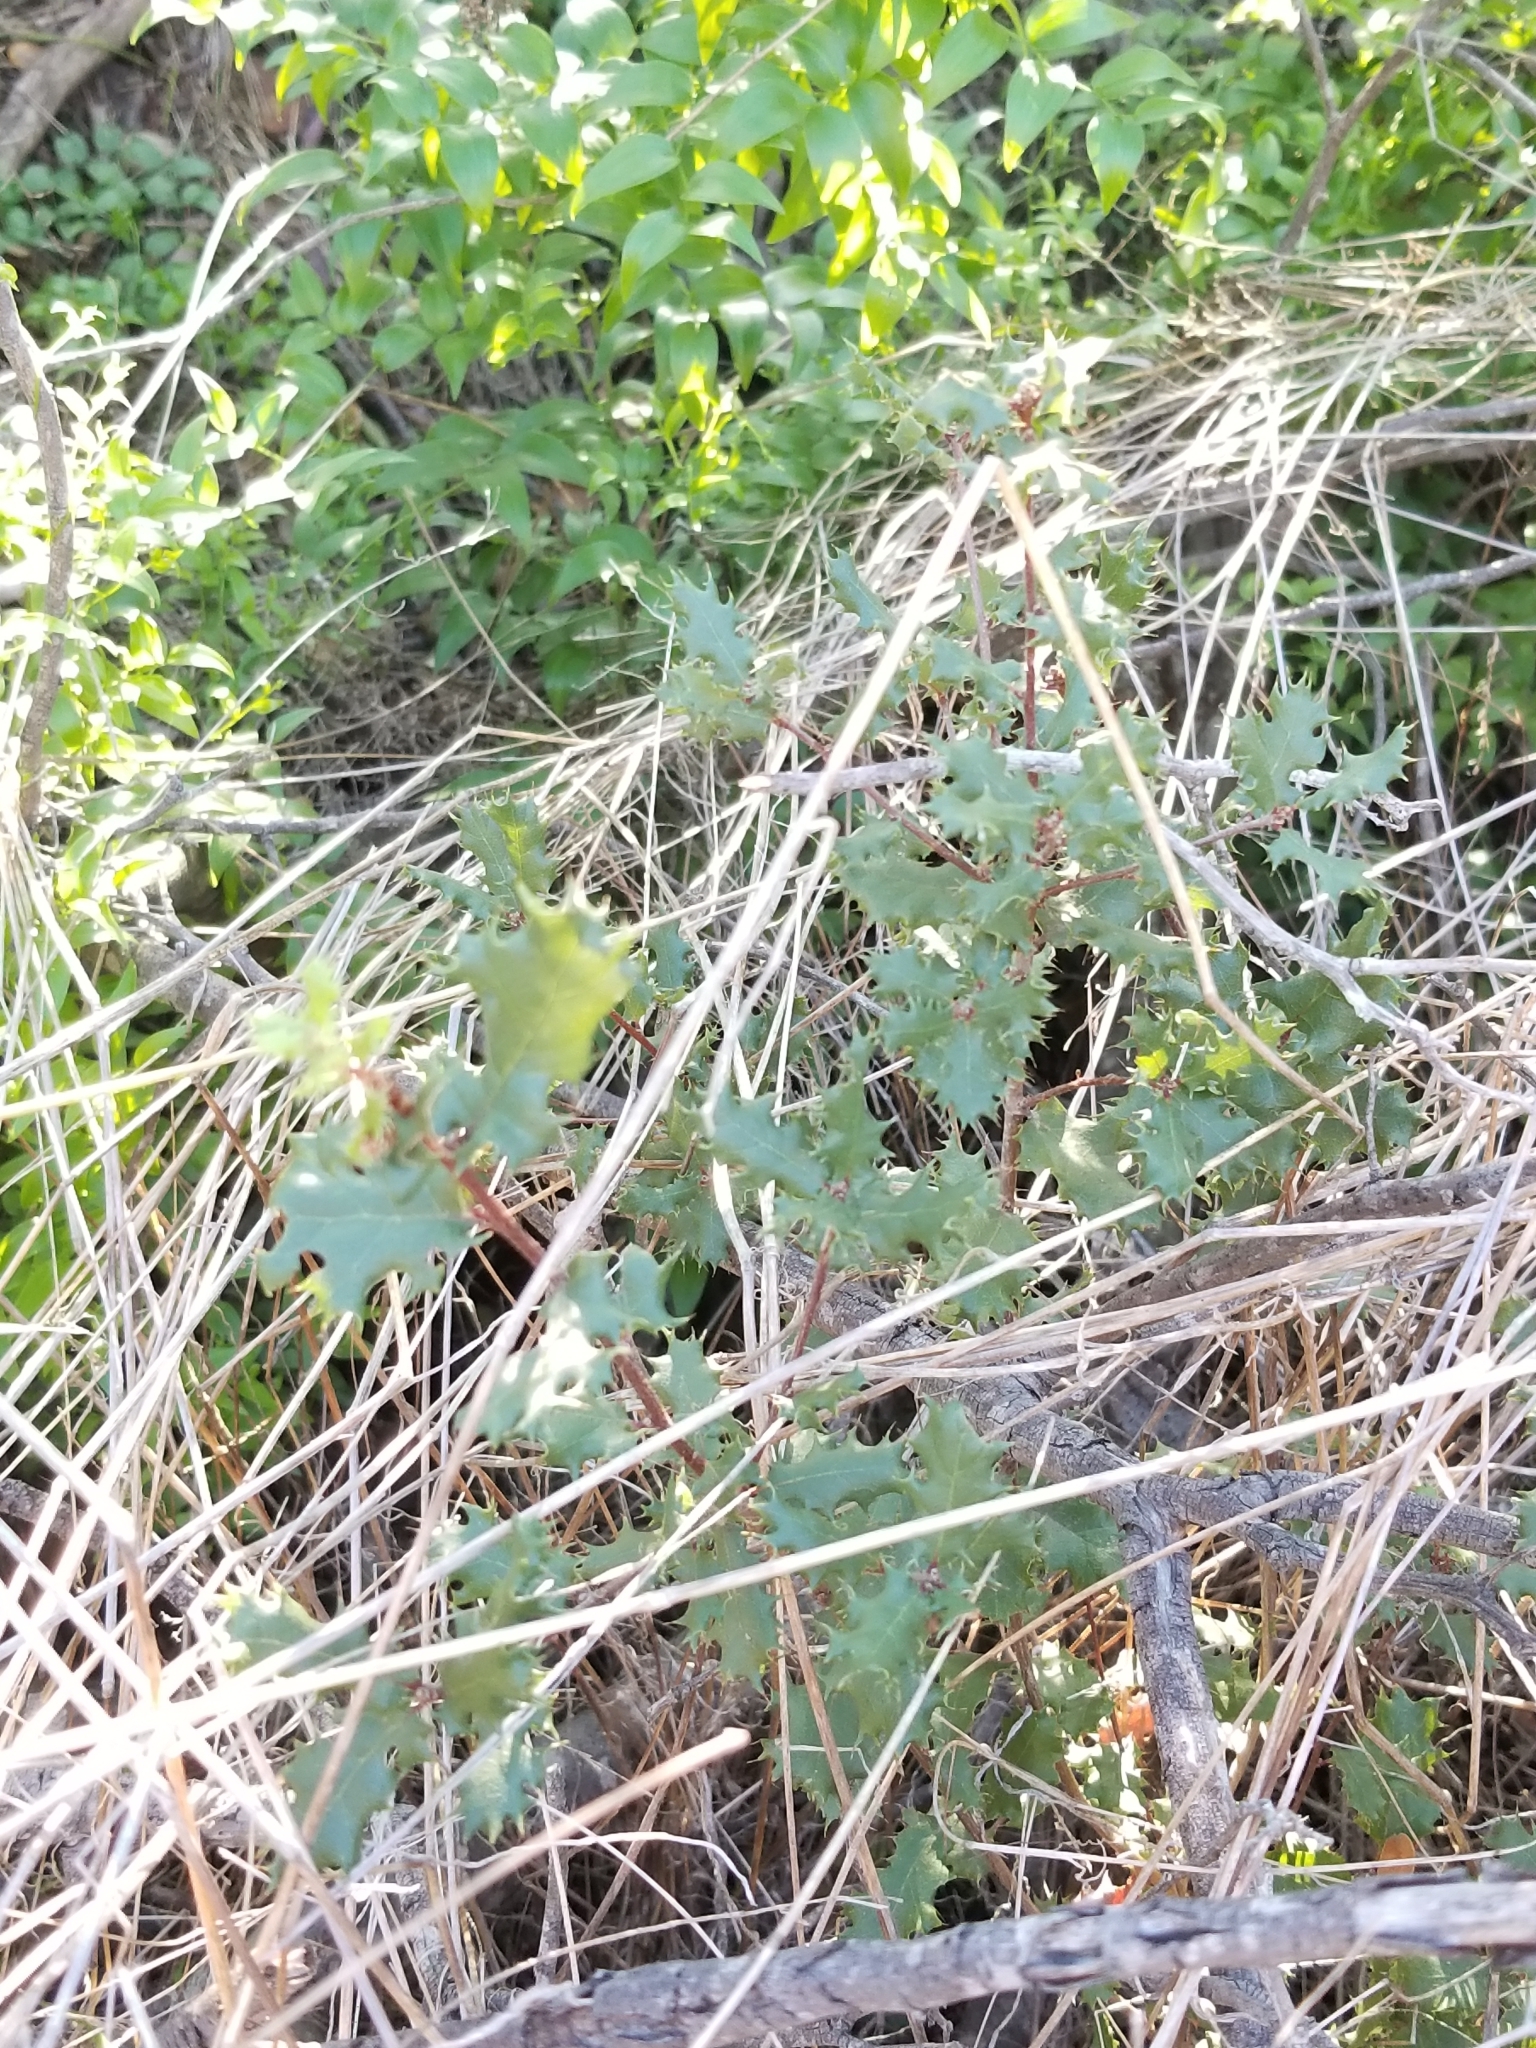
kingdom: Plantae
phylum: Tracheophyta
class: Magnoliopsida
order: Fagales
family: Fagaceae
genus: Quercus
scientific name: Quercus dumosa
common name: Coastal sage scrub oak
